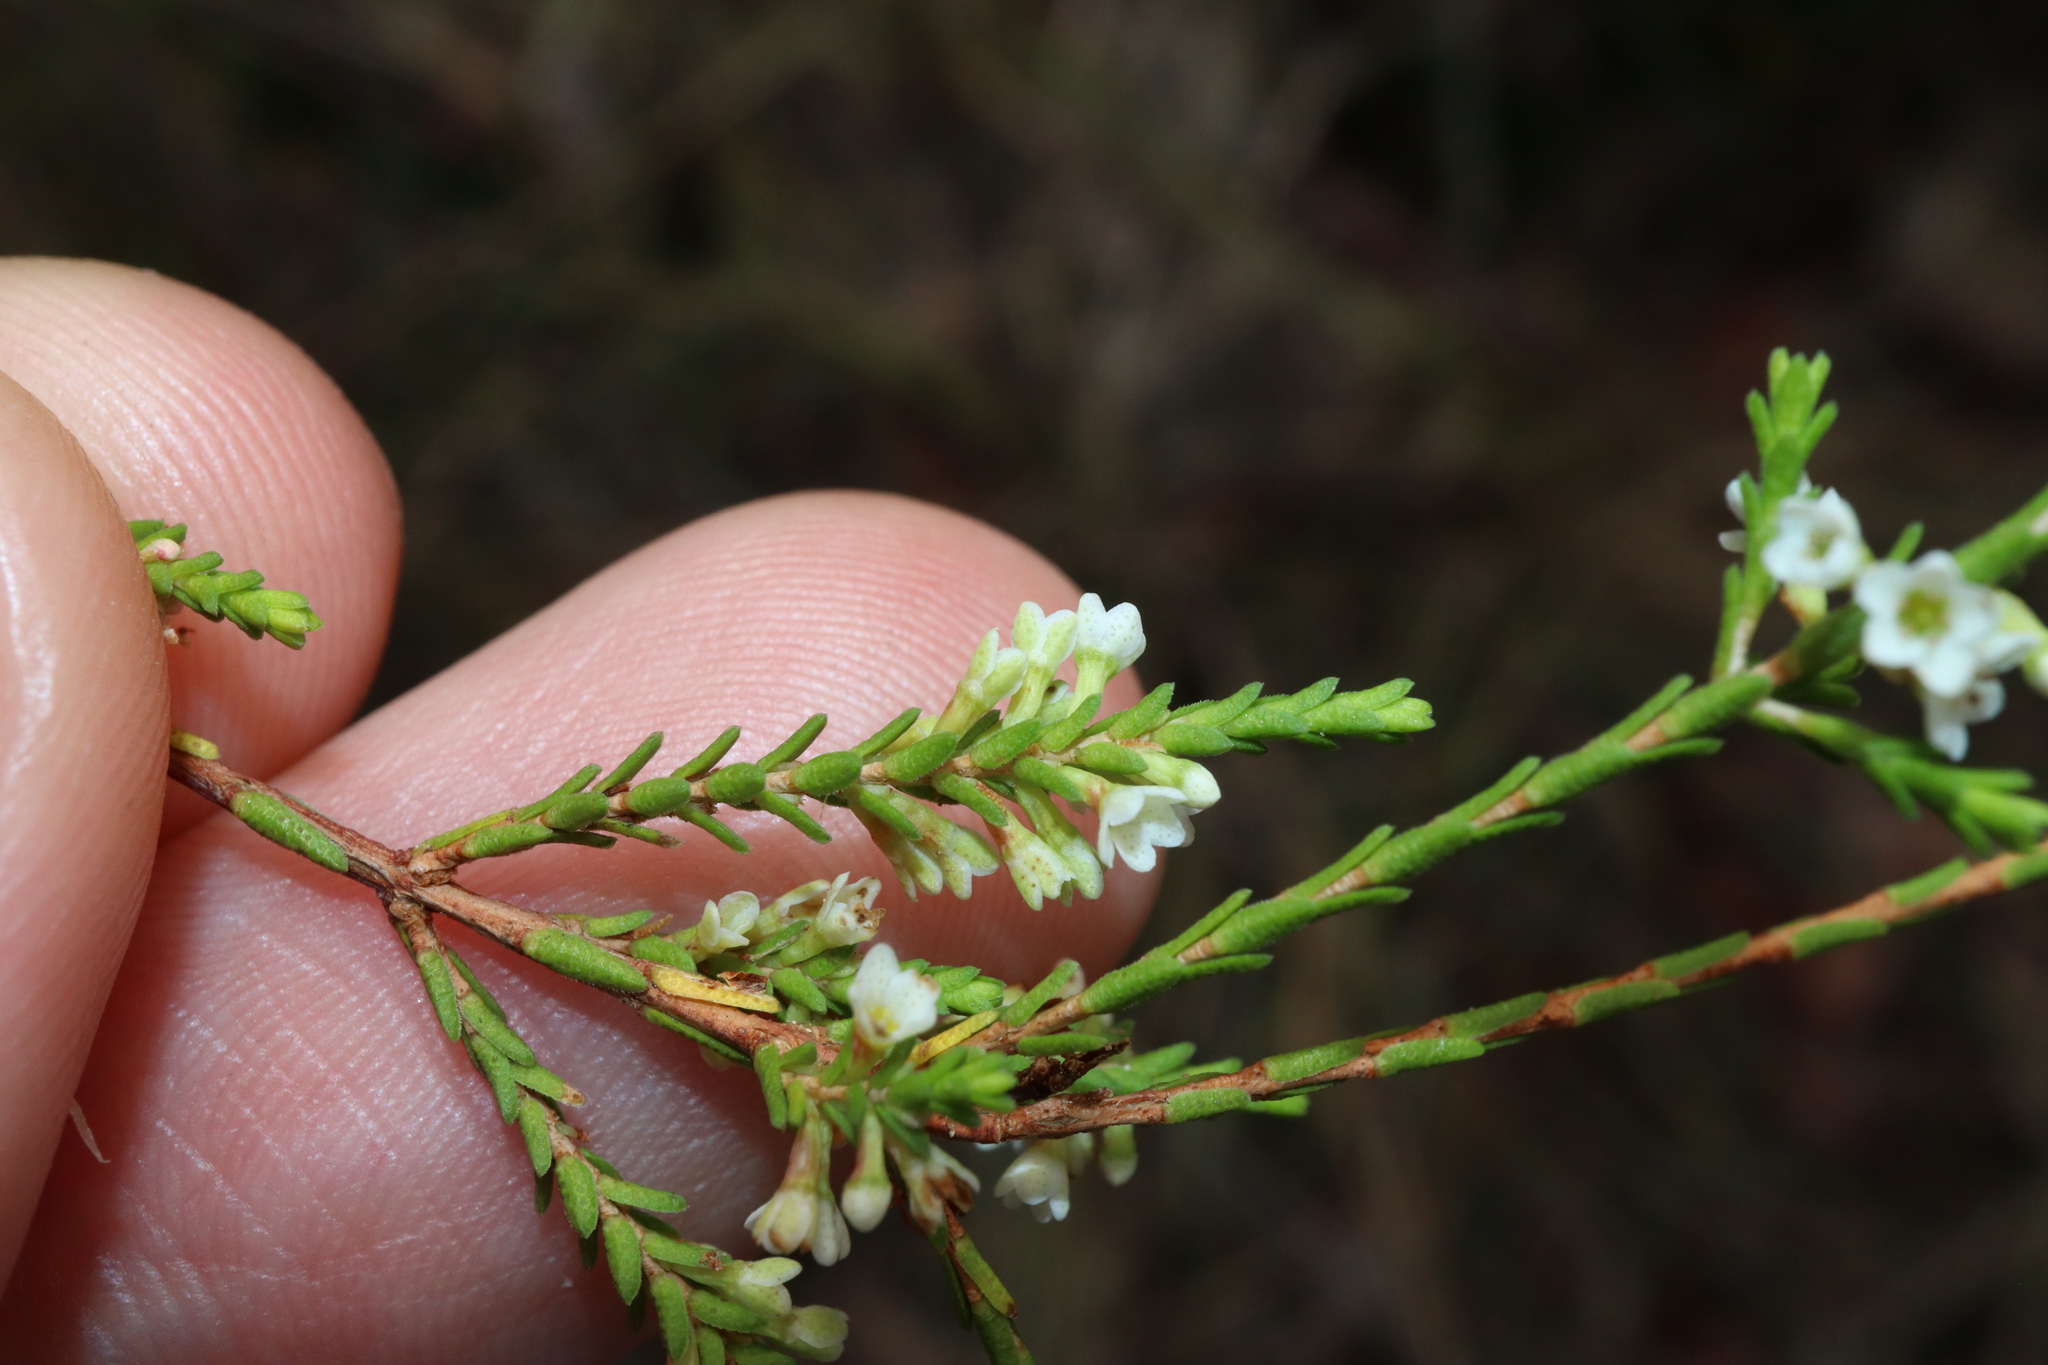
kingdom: Plantae
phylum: Tracheophyta
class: Magnoliopsida
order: Myrtales
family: Myrtaceae
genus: Micromyrtus
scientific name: Micromyrtus minutiflora
